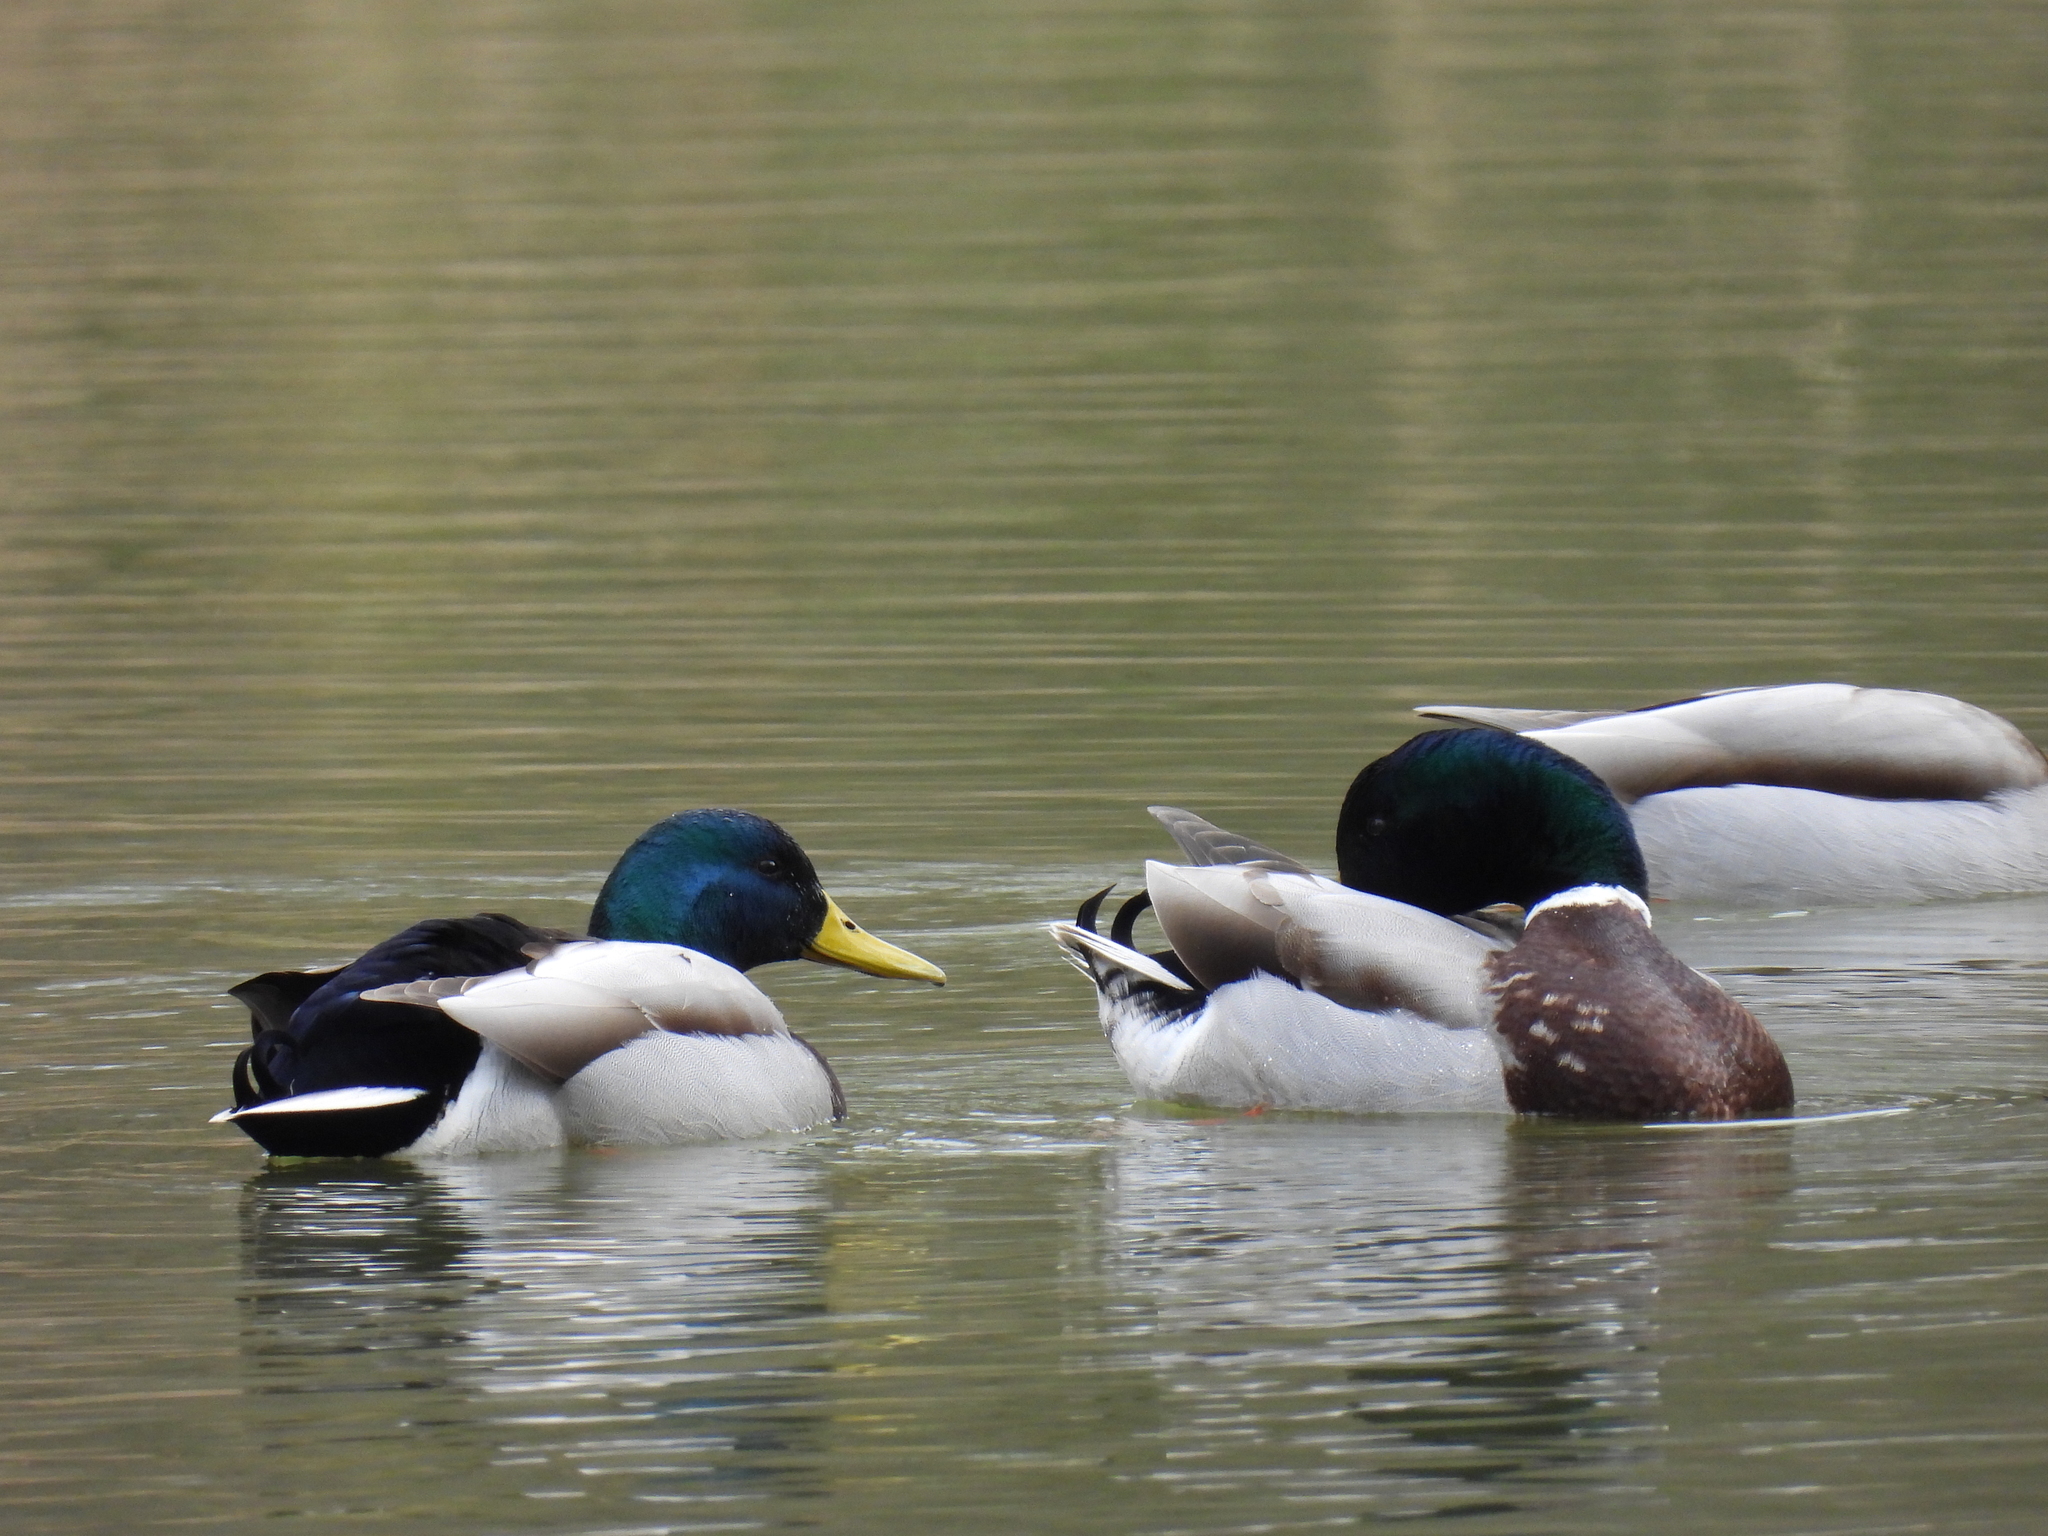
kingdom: Animalia
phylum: Chordata
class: Aves
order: Anseriformes
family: Anatidae
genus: Anas
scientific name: Anas platyrhynchos
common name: Mallard
